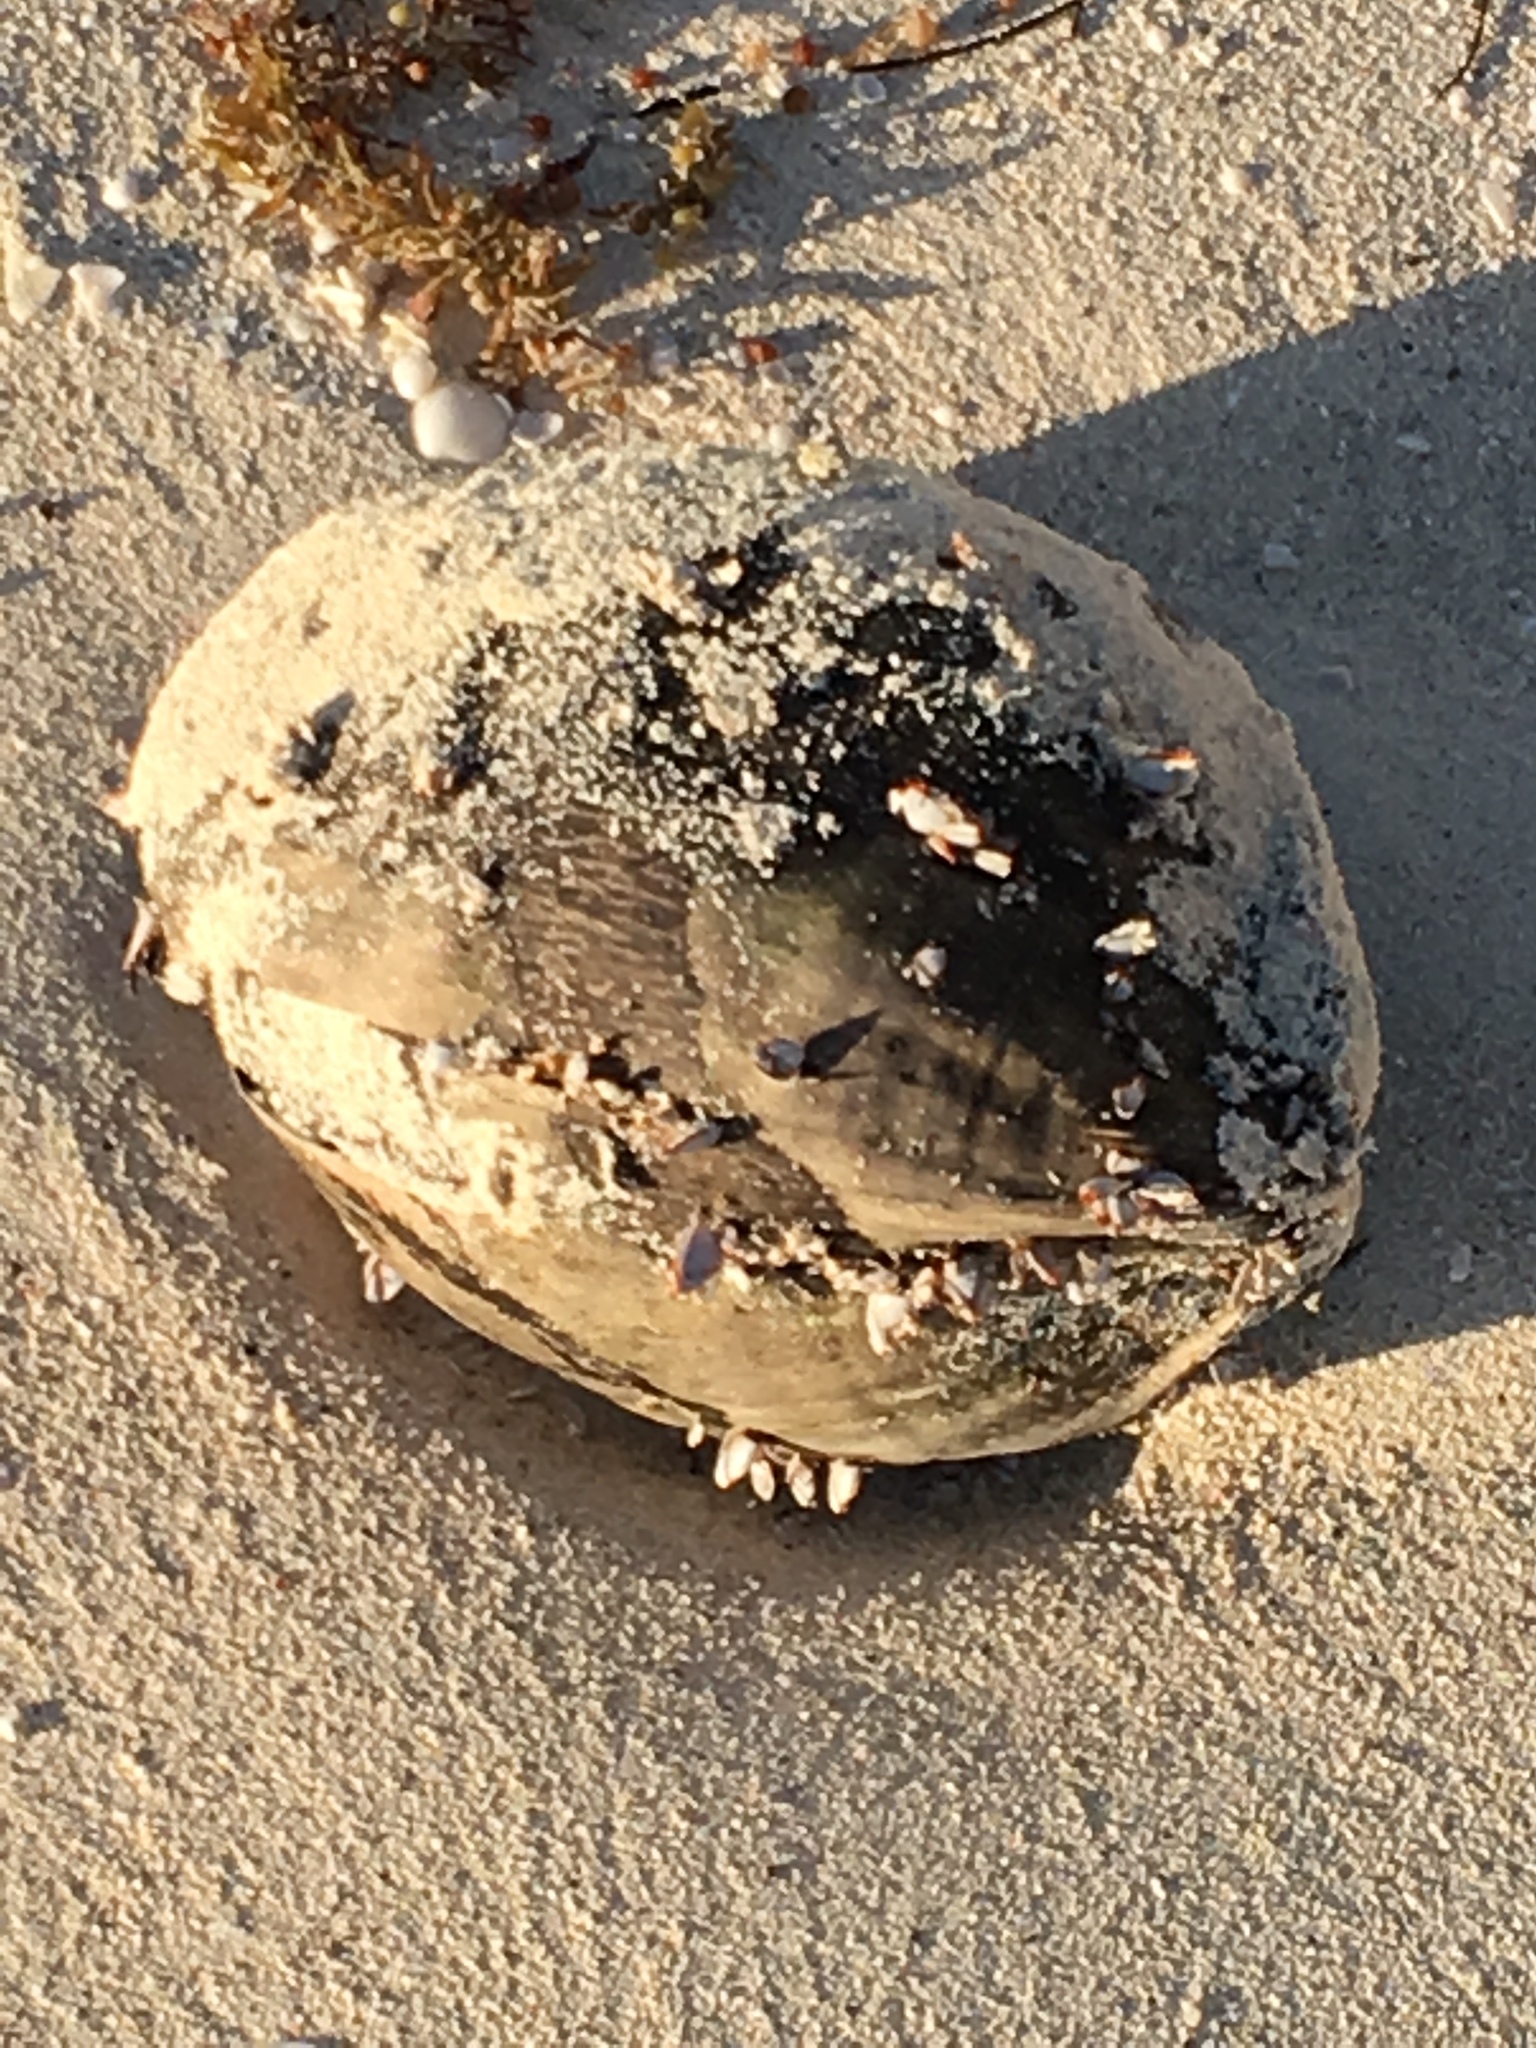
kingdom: Plantae
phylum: Tracheophyta
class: Liliopsida
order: Arecales
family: Arecaceae
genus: Cocos
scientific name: Cocos nucifera
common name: Coconut palm
